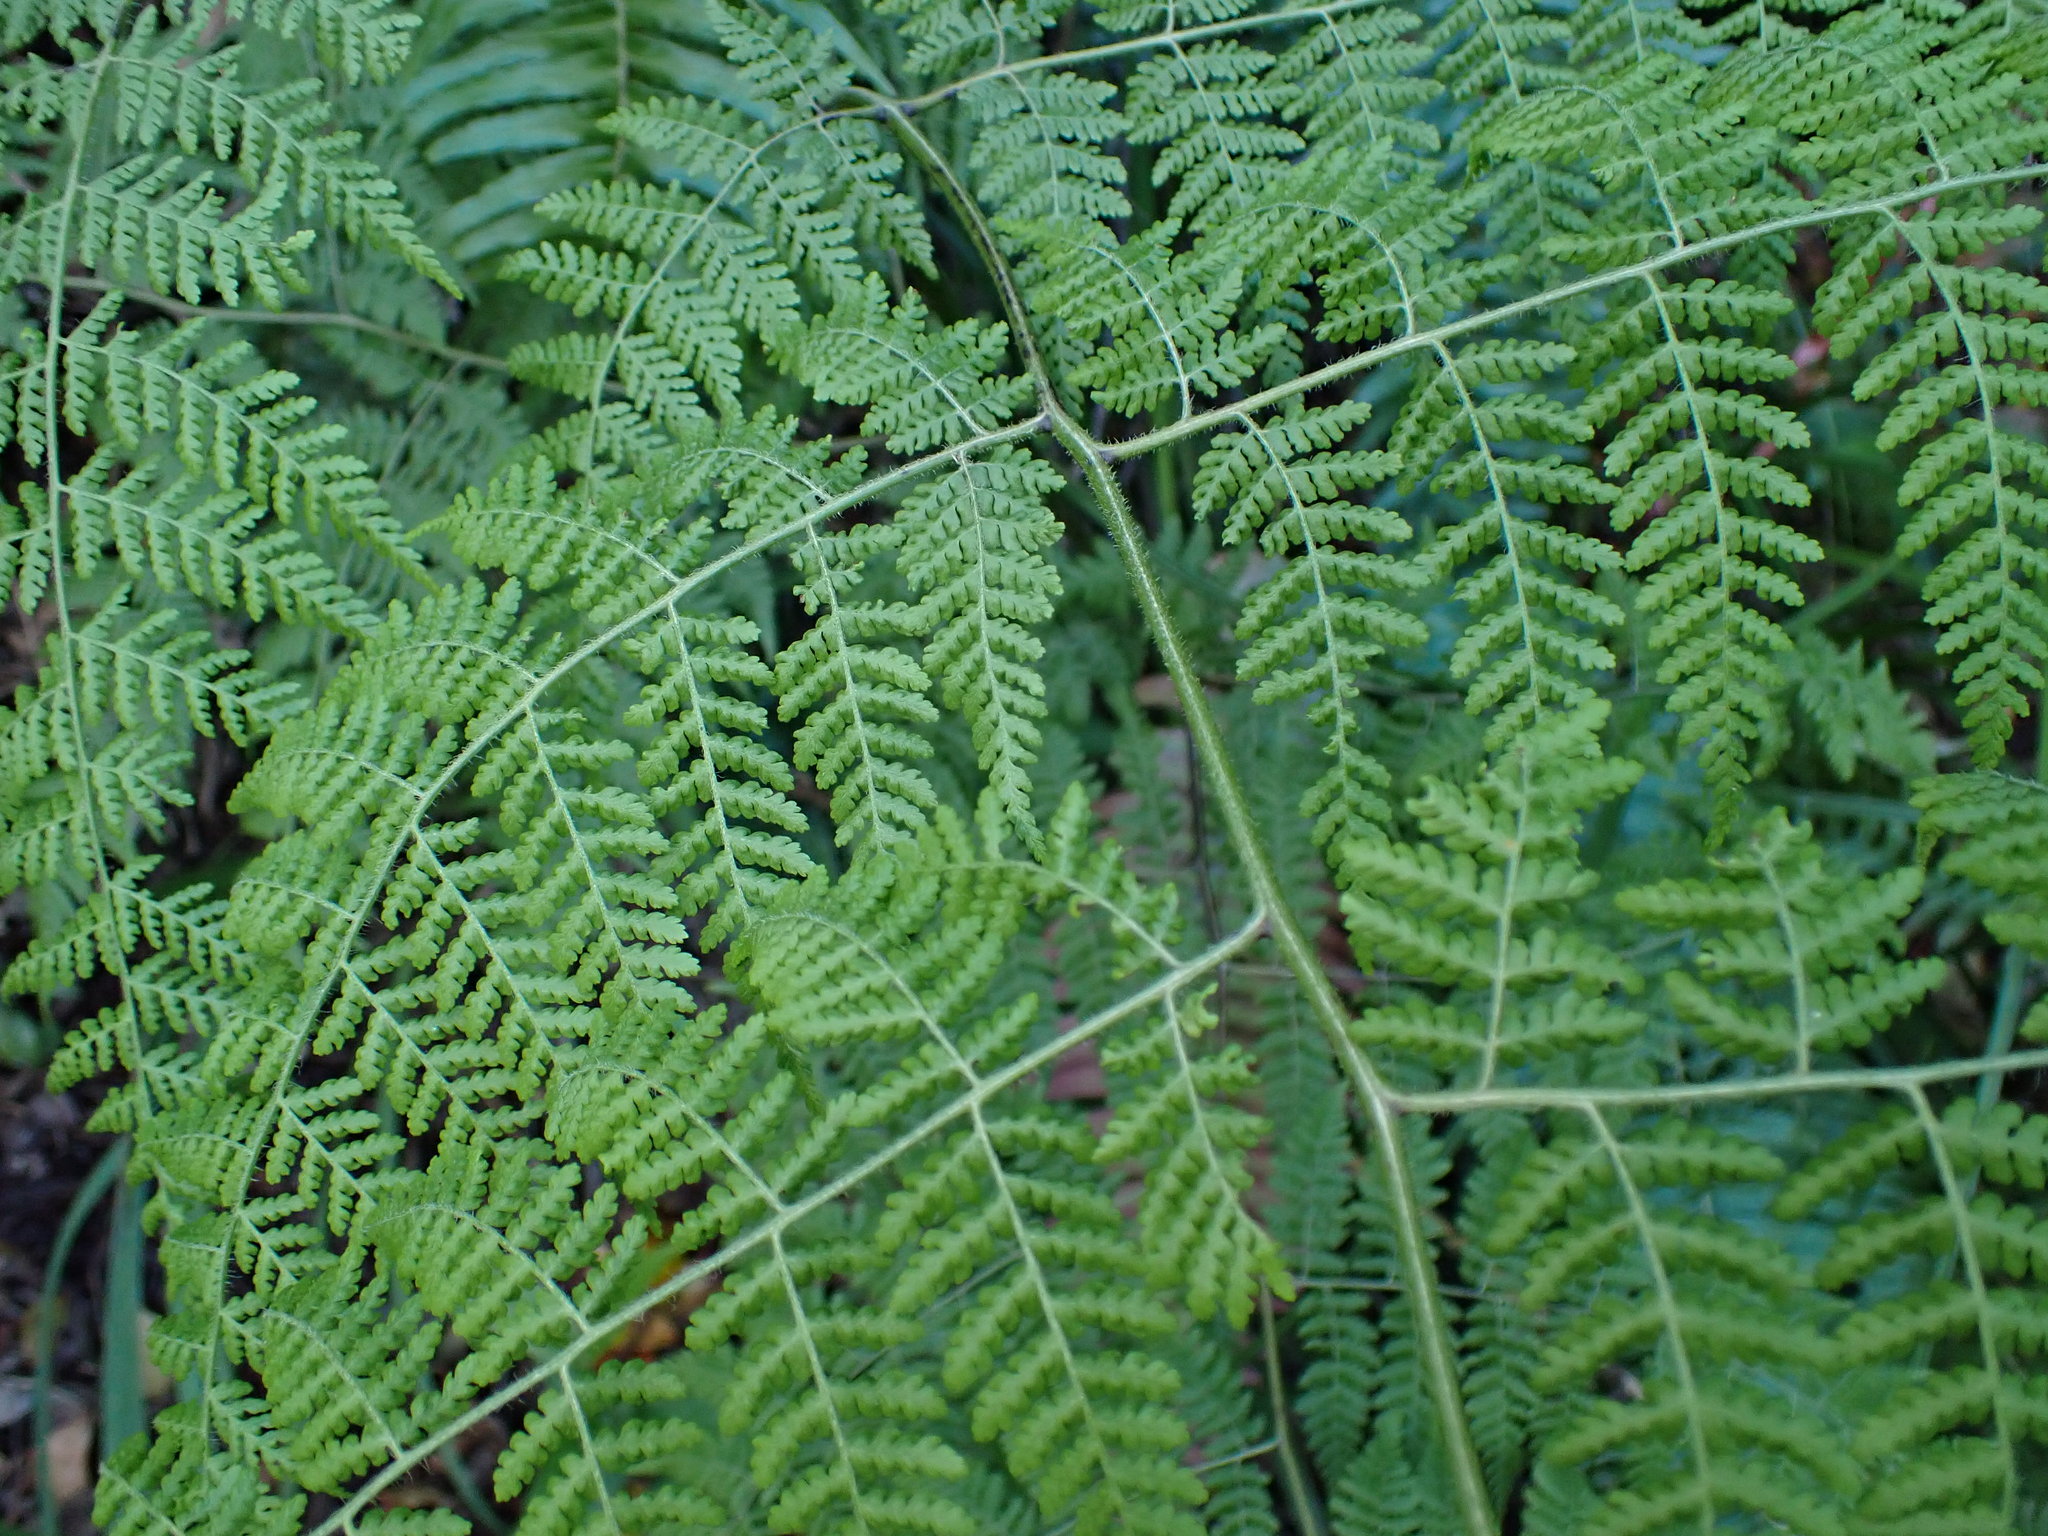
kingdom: Plantae
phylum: Tracheophyta
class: Polypodiopsida
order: Polypodiales
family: Dennstaedtiaceae
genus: Hypolepis
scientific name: Hypolepis sparsisora
